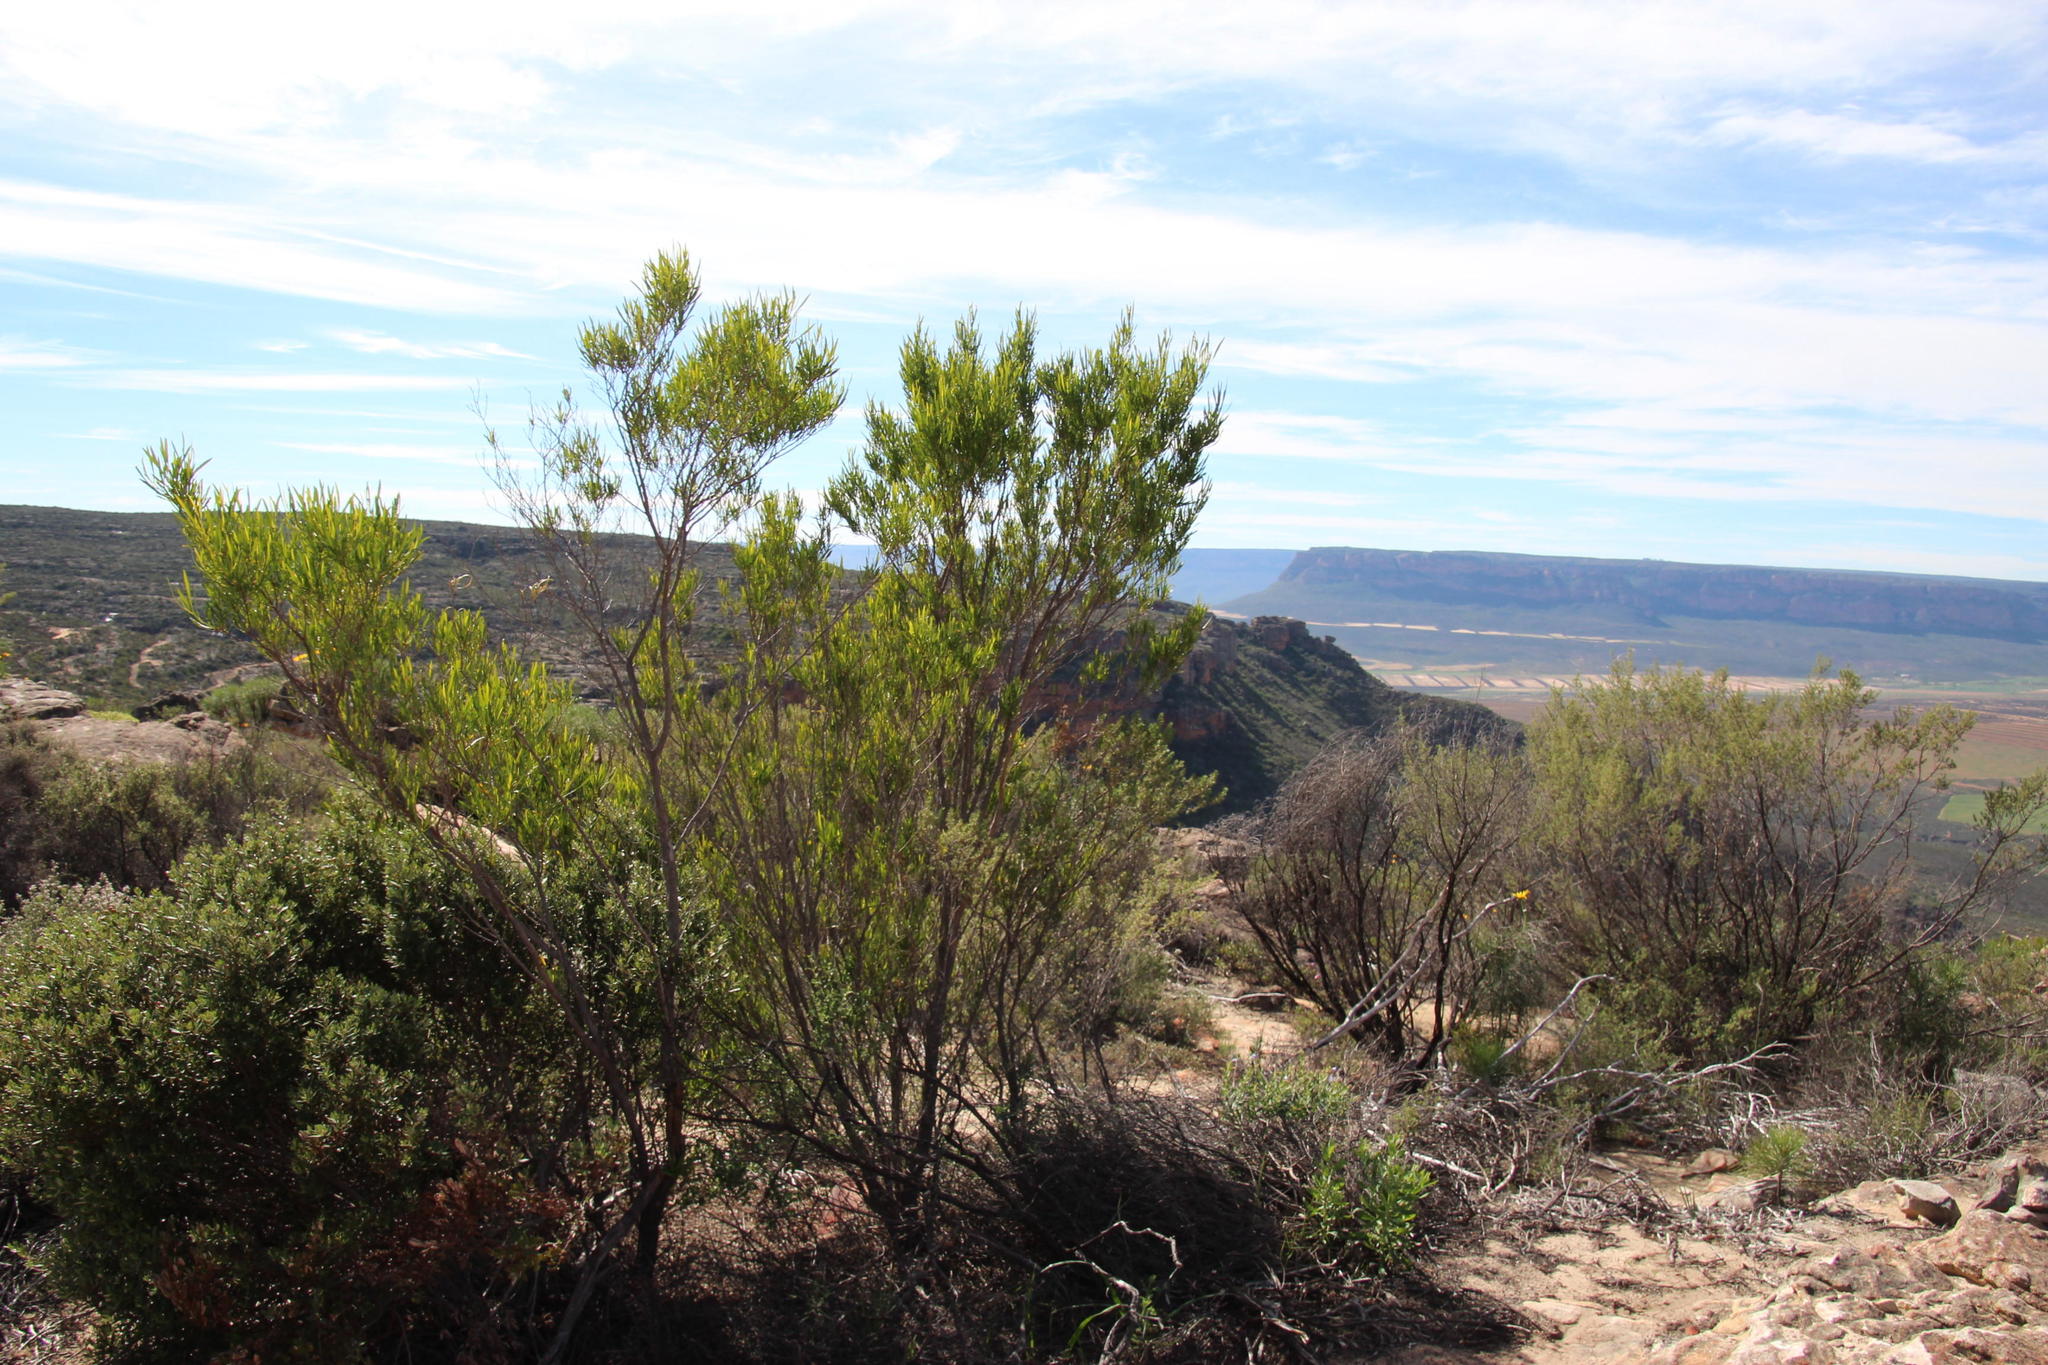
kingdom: Plantae
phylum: Tracheophyta
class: Magnoliopsida
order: Sapindales
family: Sapindaceae
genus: Dodonaea
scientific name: Dodonaea viscosa
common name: Hopbush
